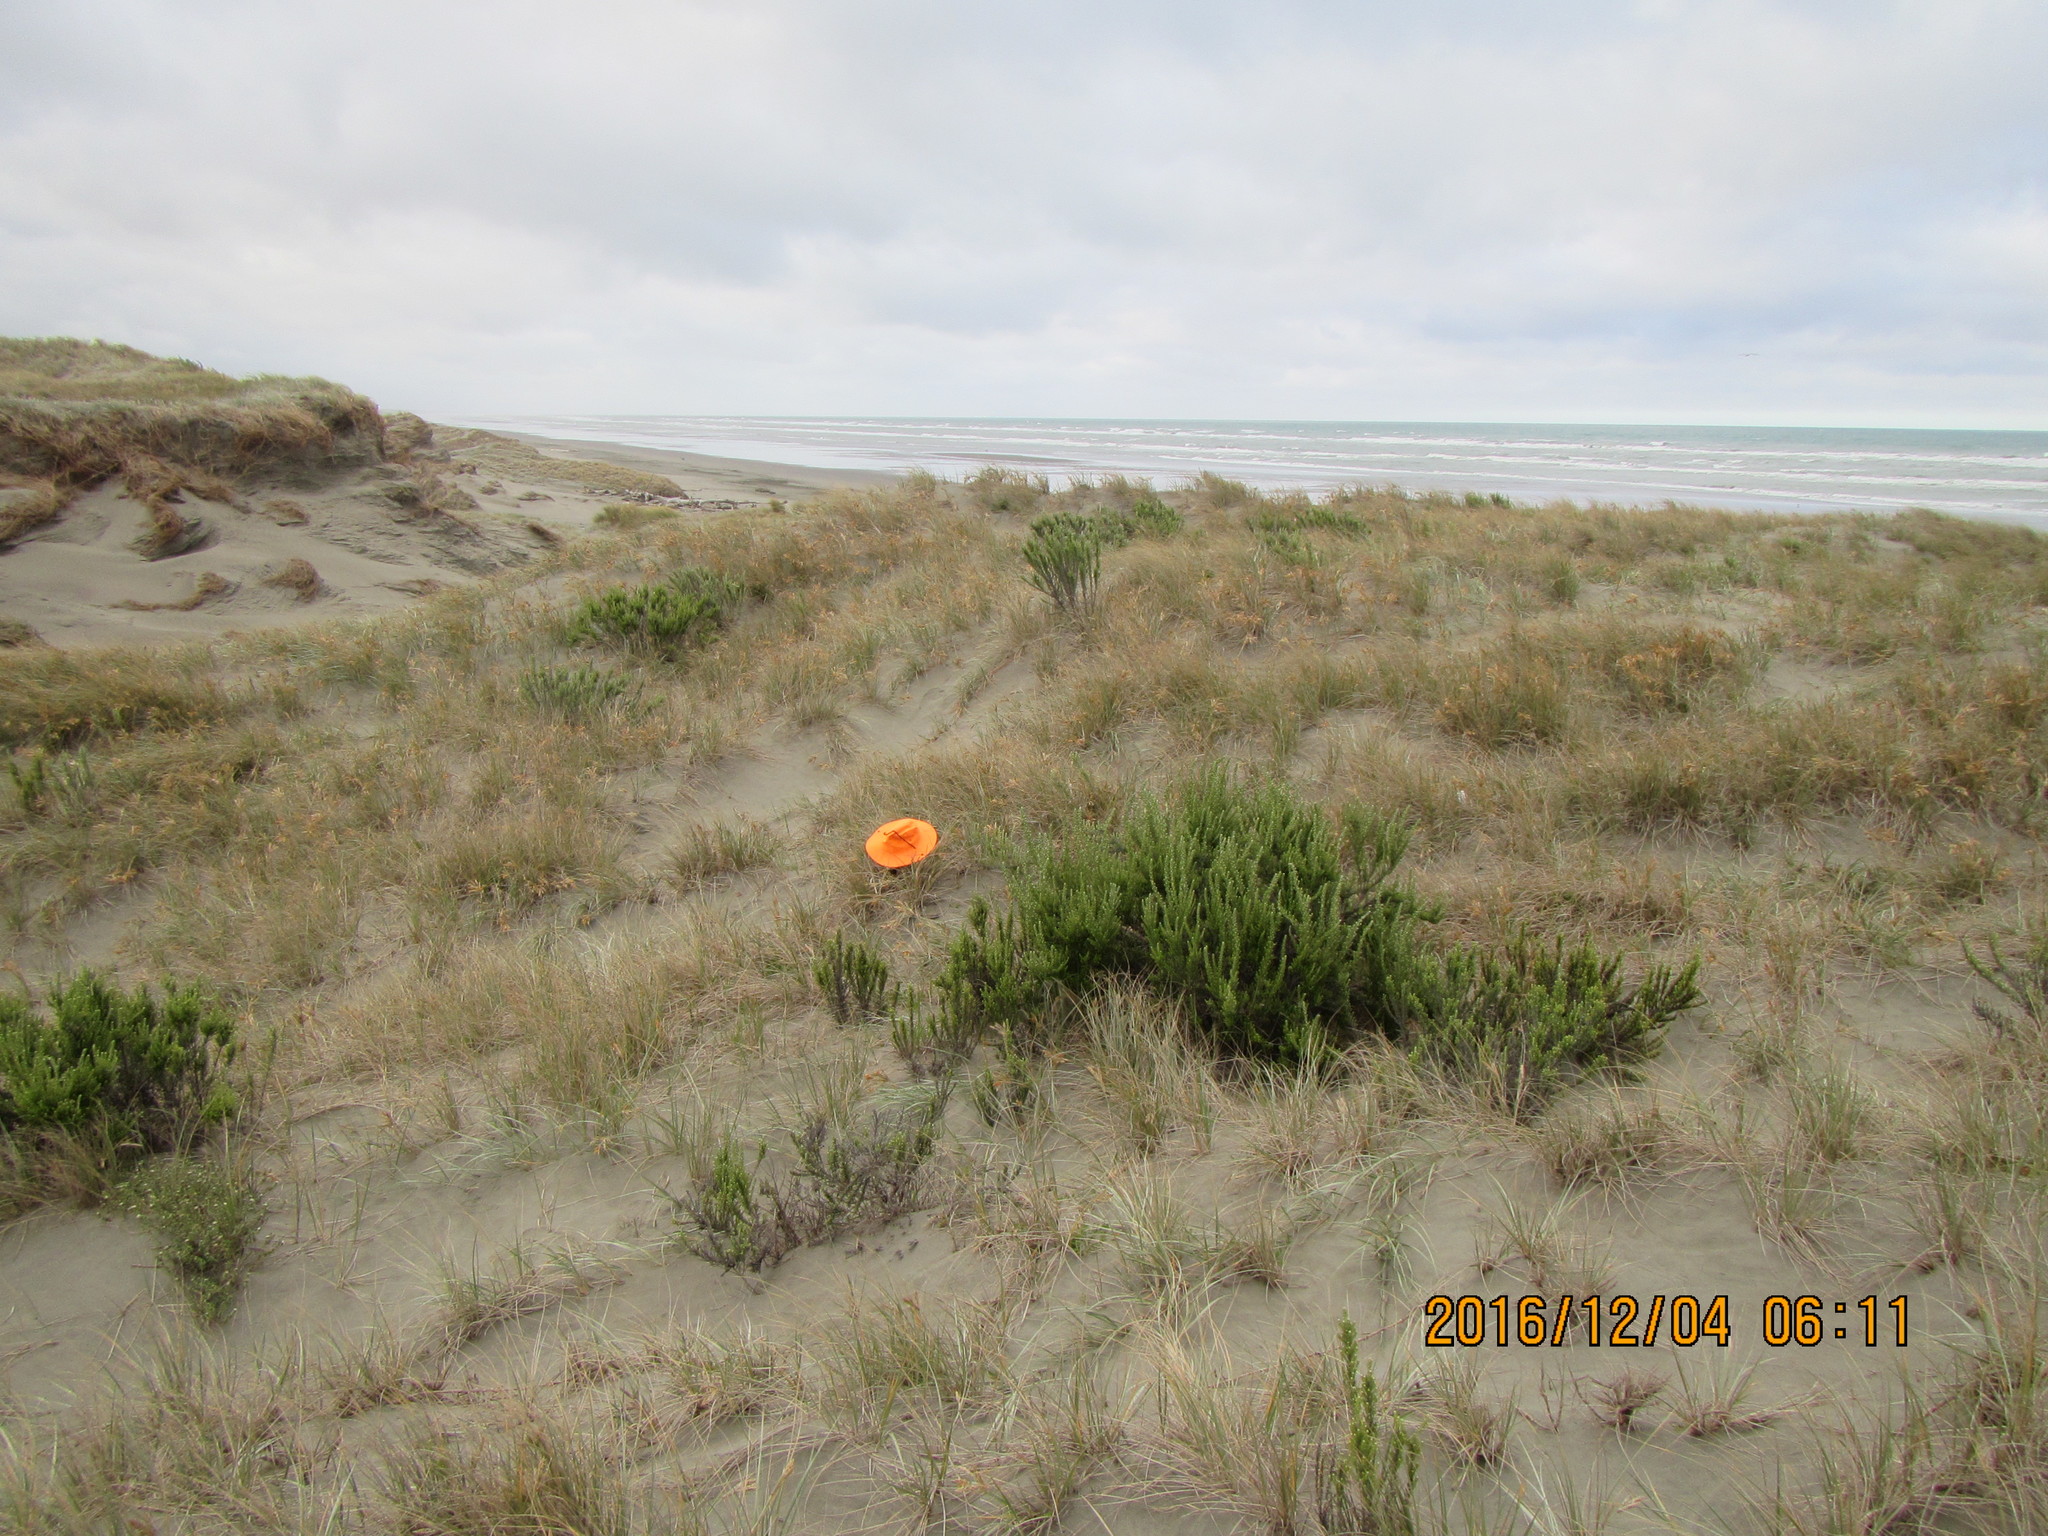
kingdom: Animalia
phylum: Arthropoda
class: Arachnida
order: Araneae
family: Theridiidae
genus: Latrodectus
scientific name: Latrodectus katipo
